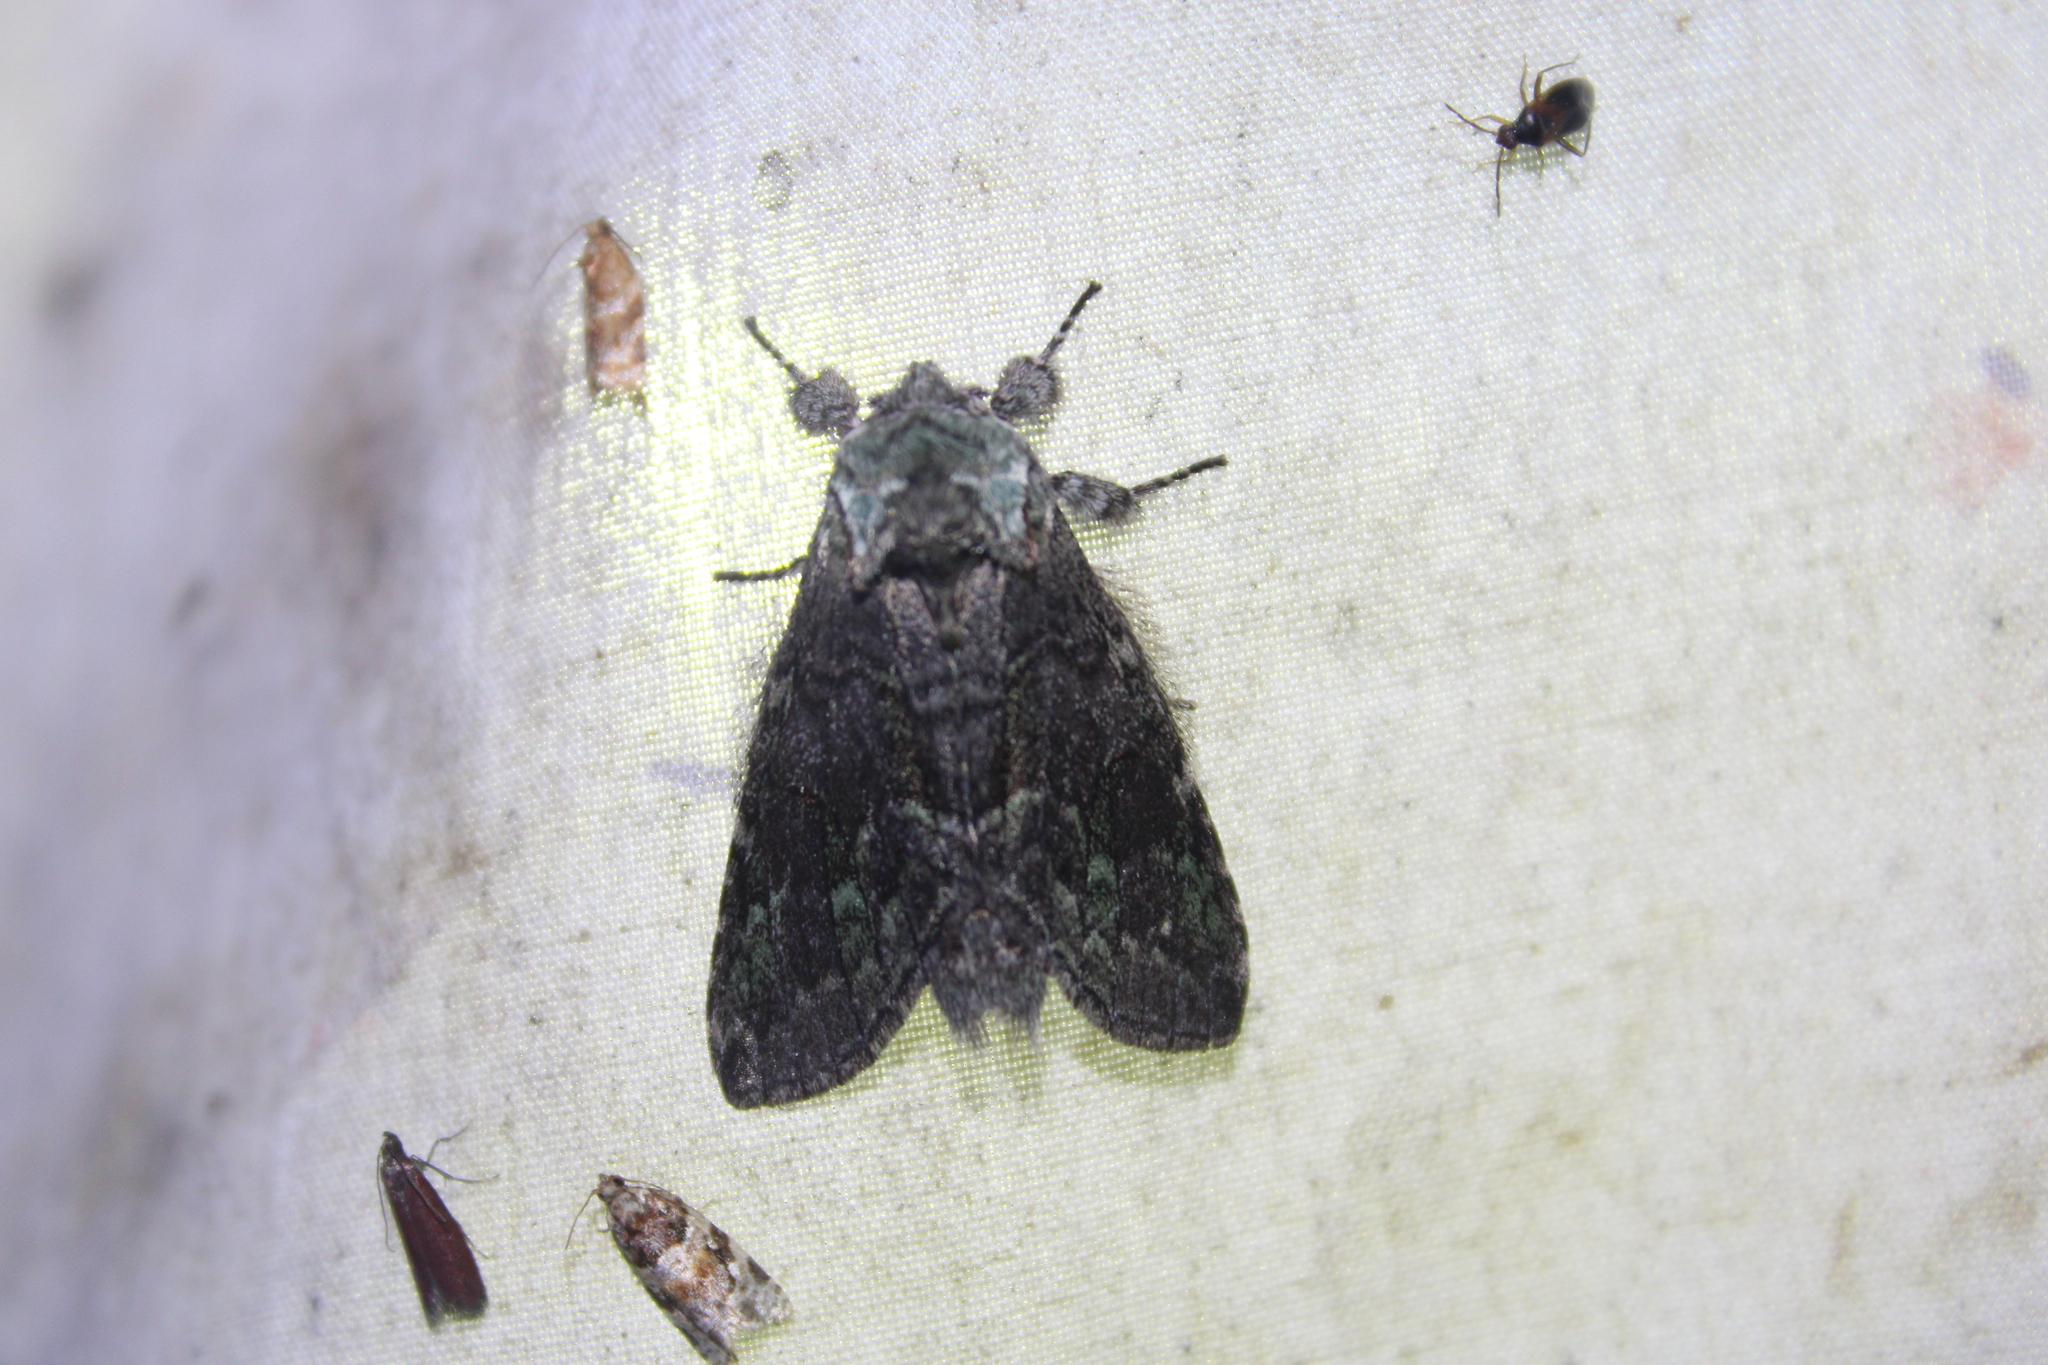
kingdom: Animalia
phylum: Arthropoda
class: Insecta
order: Lepidoptera
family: Notodontidae
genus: Macrurocampa
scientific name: Macrurocampa marthesia
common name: Mottled prominent
